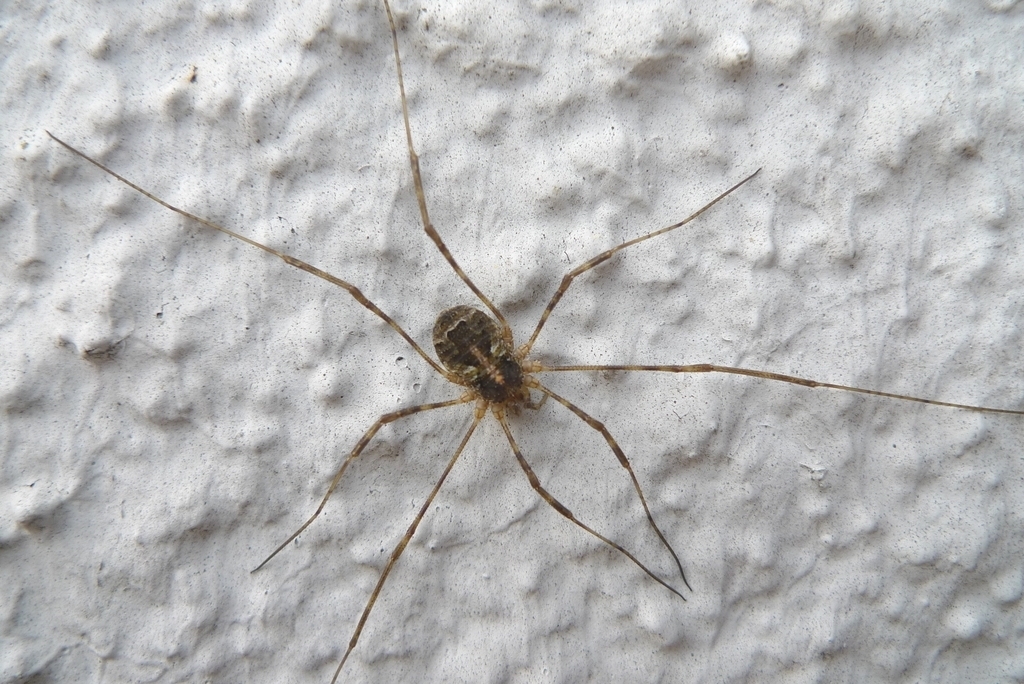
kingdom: Animalia
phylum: Arthropoda
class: Arachnida
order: Opiliones
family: Phalangiidae
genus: Lacinius
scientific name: Lacinius dentiger
